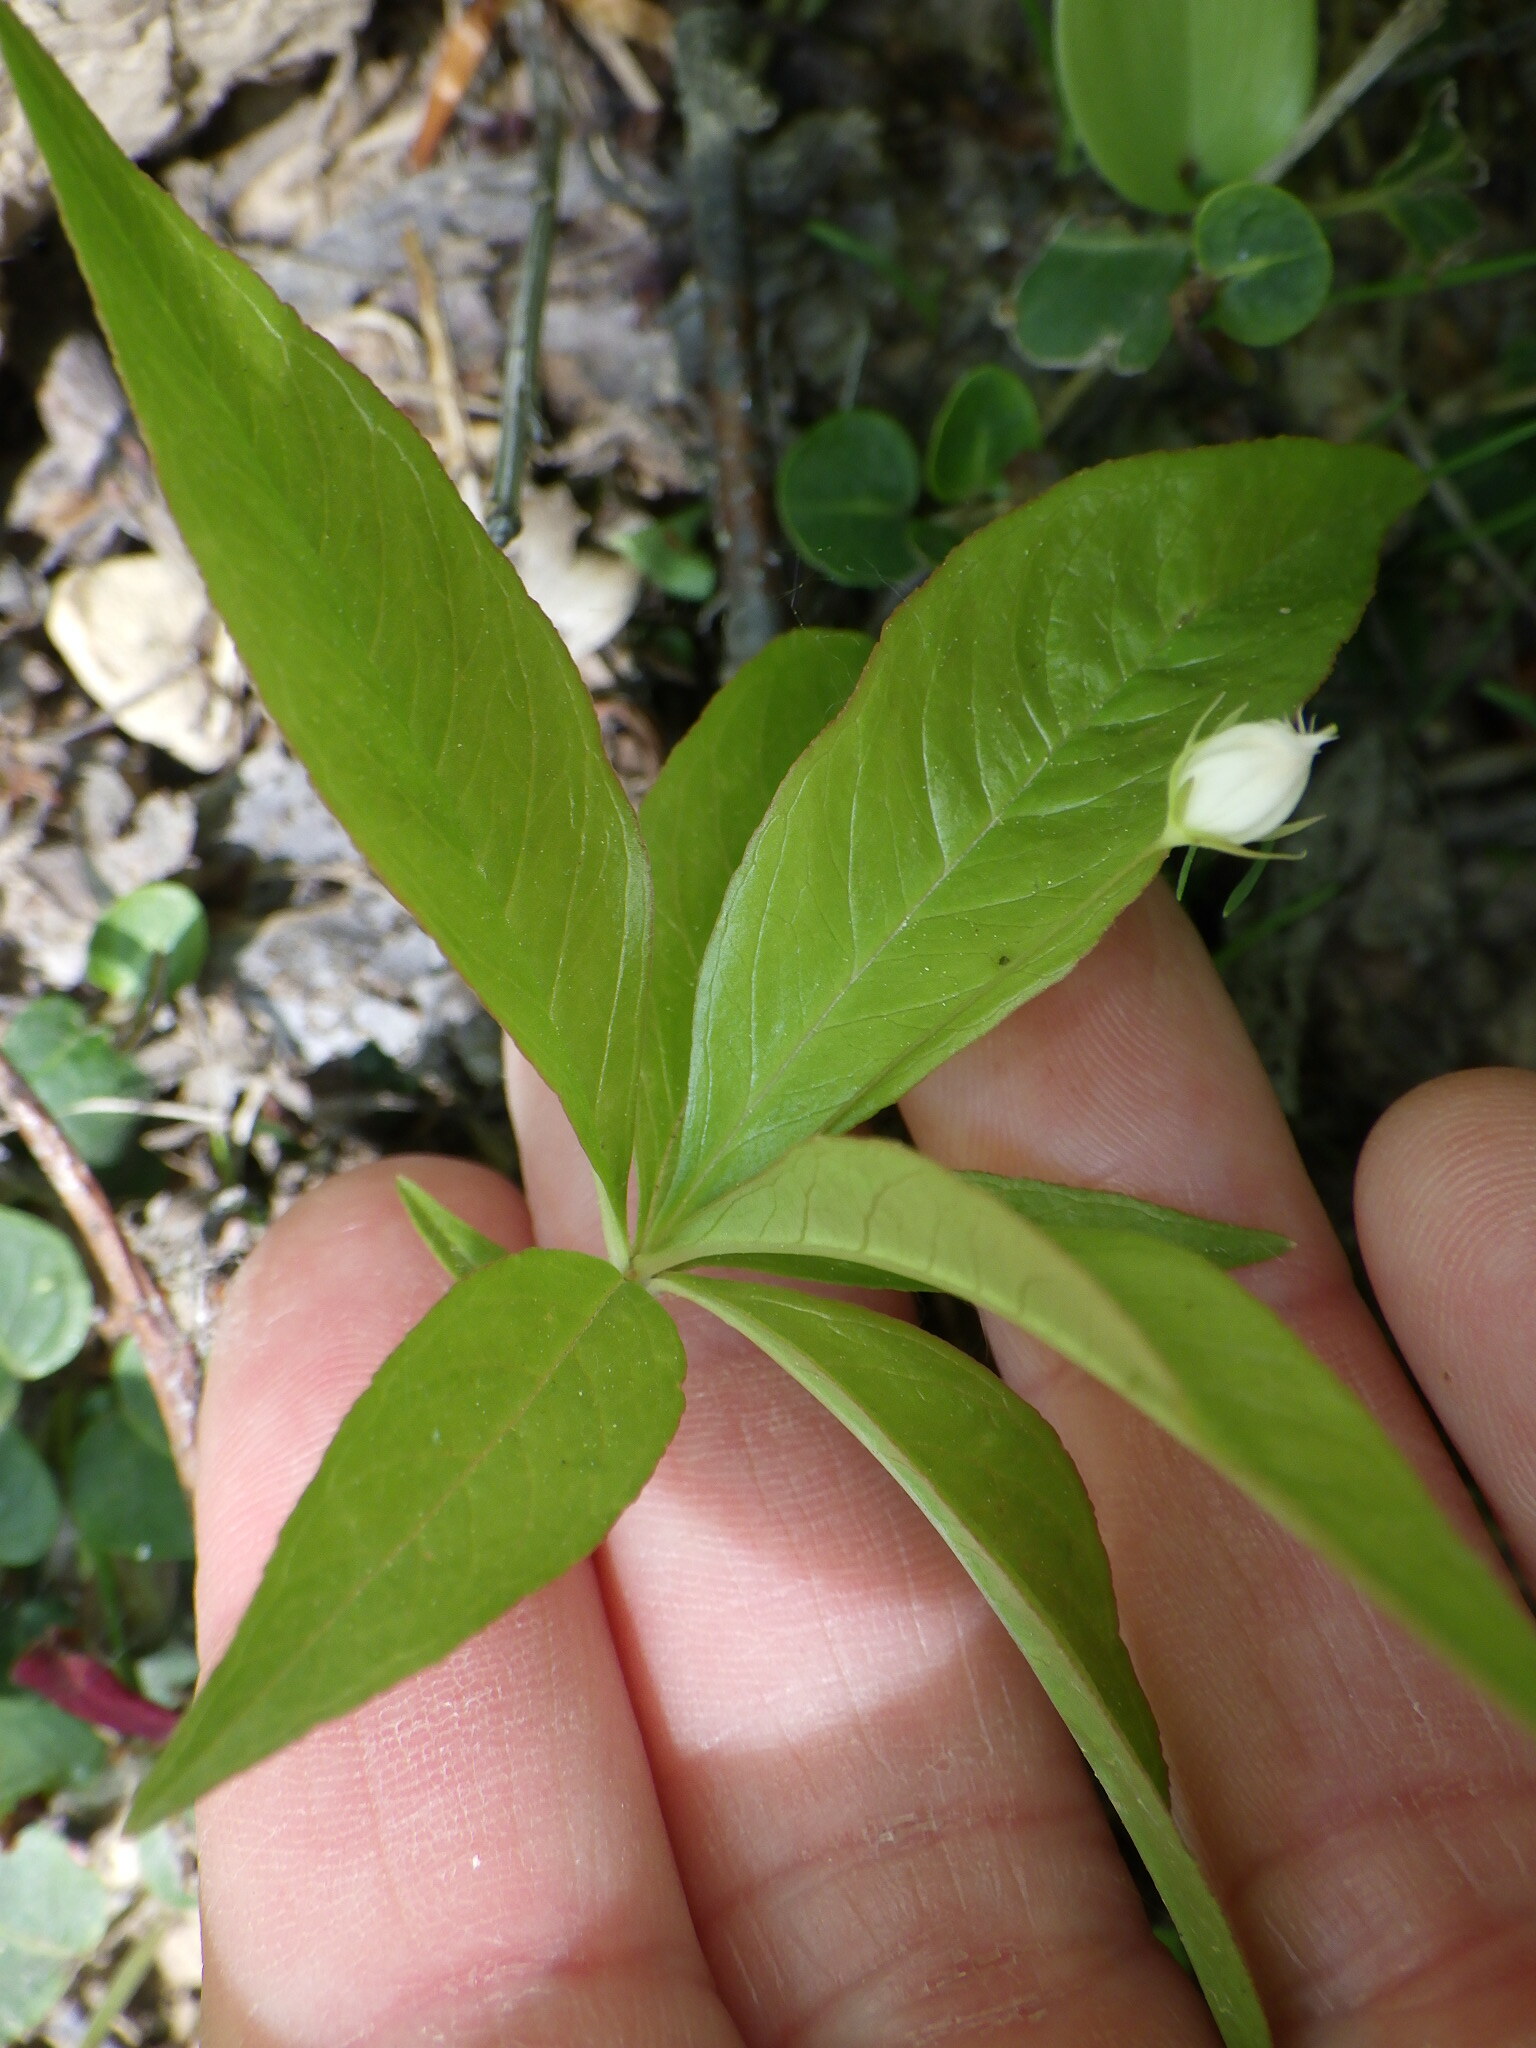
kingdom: Plantae
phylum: Tracheophyta
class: Magnoliopsida
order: Ericales
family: Primulaceae
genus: Lysimachia
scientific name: Lysimachia borealis
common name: American starflower
